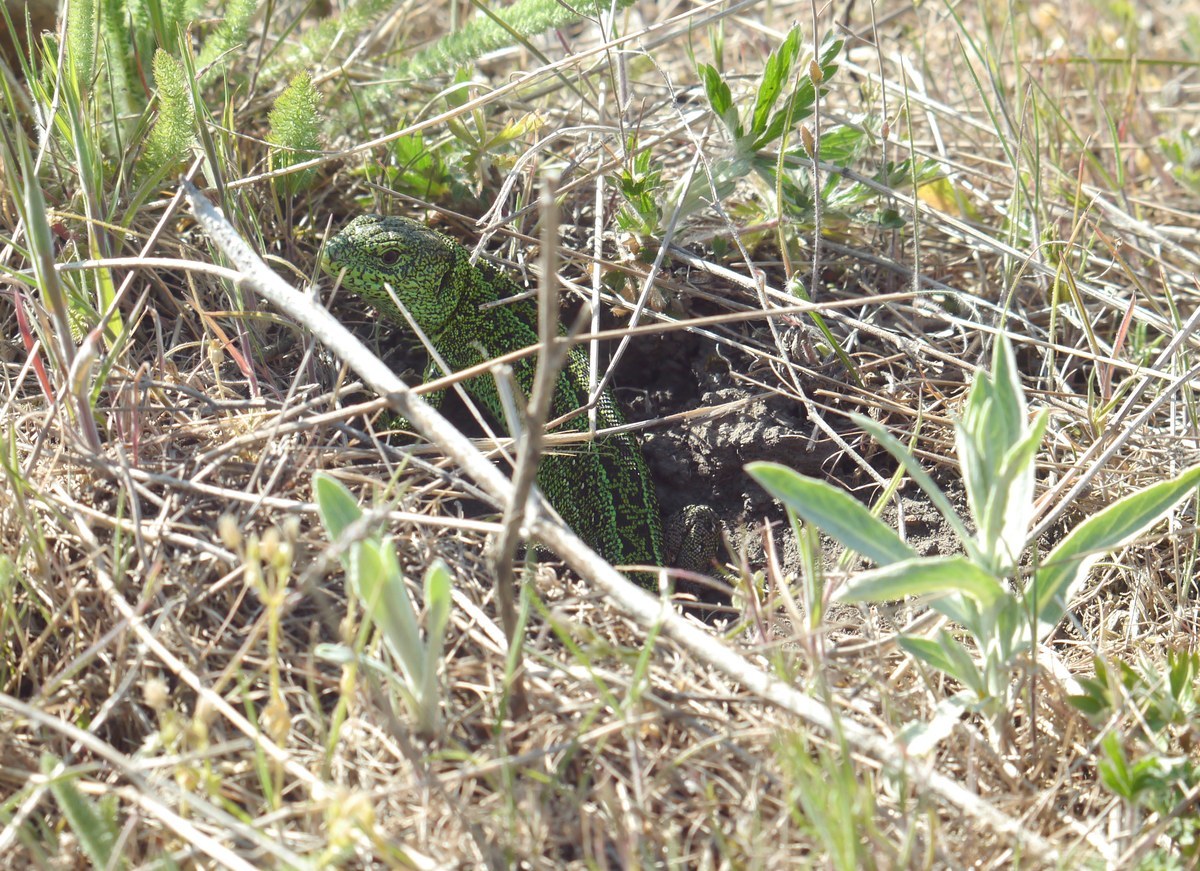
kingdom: Animalia
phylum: Chordata
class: Squamata
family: Lacertidae
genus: Lacerta
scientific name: Lacerta agilis
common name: Sand lizard
